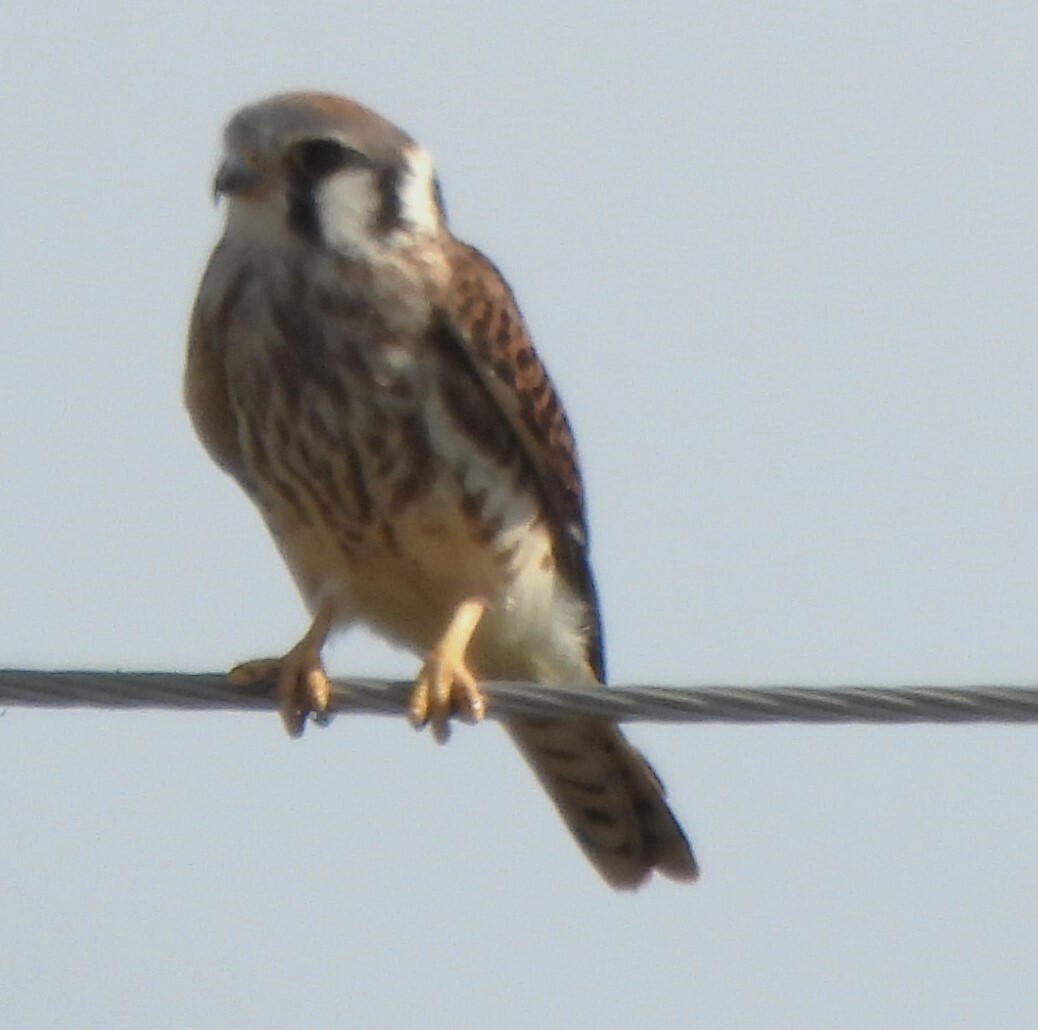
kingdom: Animalia
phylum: Chordata
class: Aves
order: Falconiformes
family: Falconidae
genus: Falco
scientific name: Falco sparverius
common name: American kestrel
